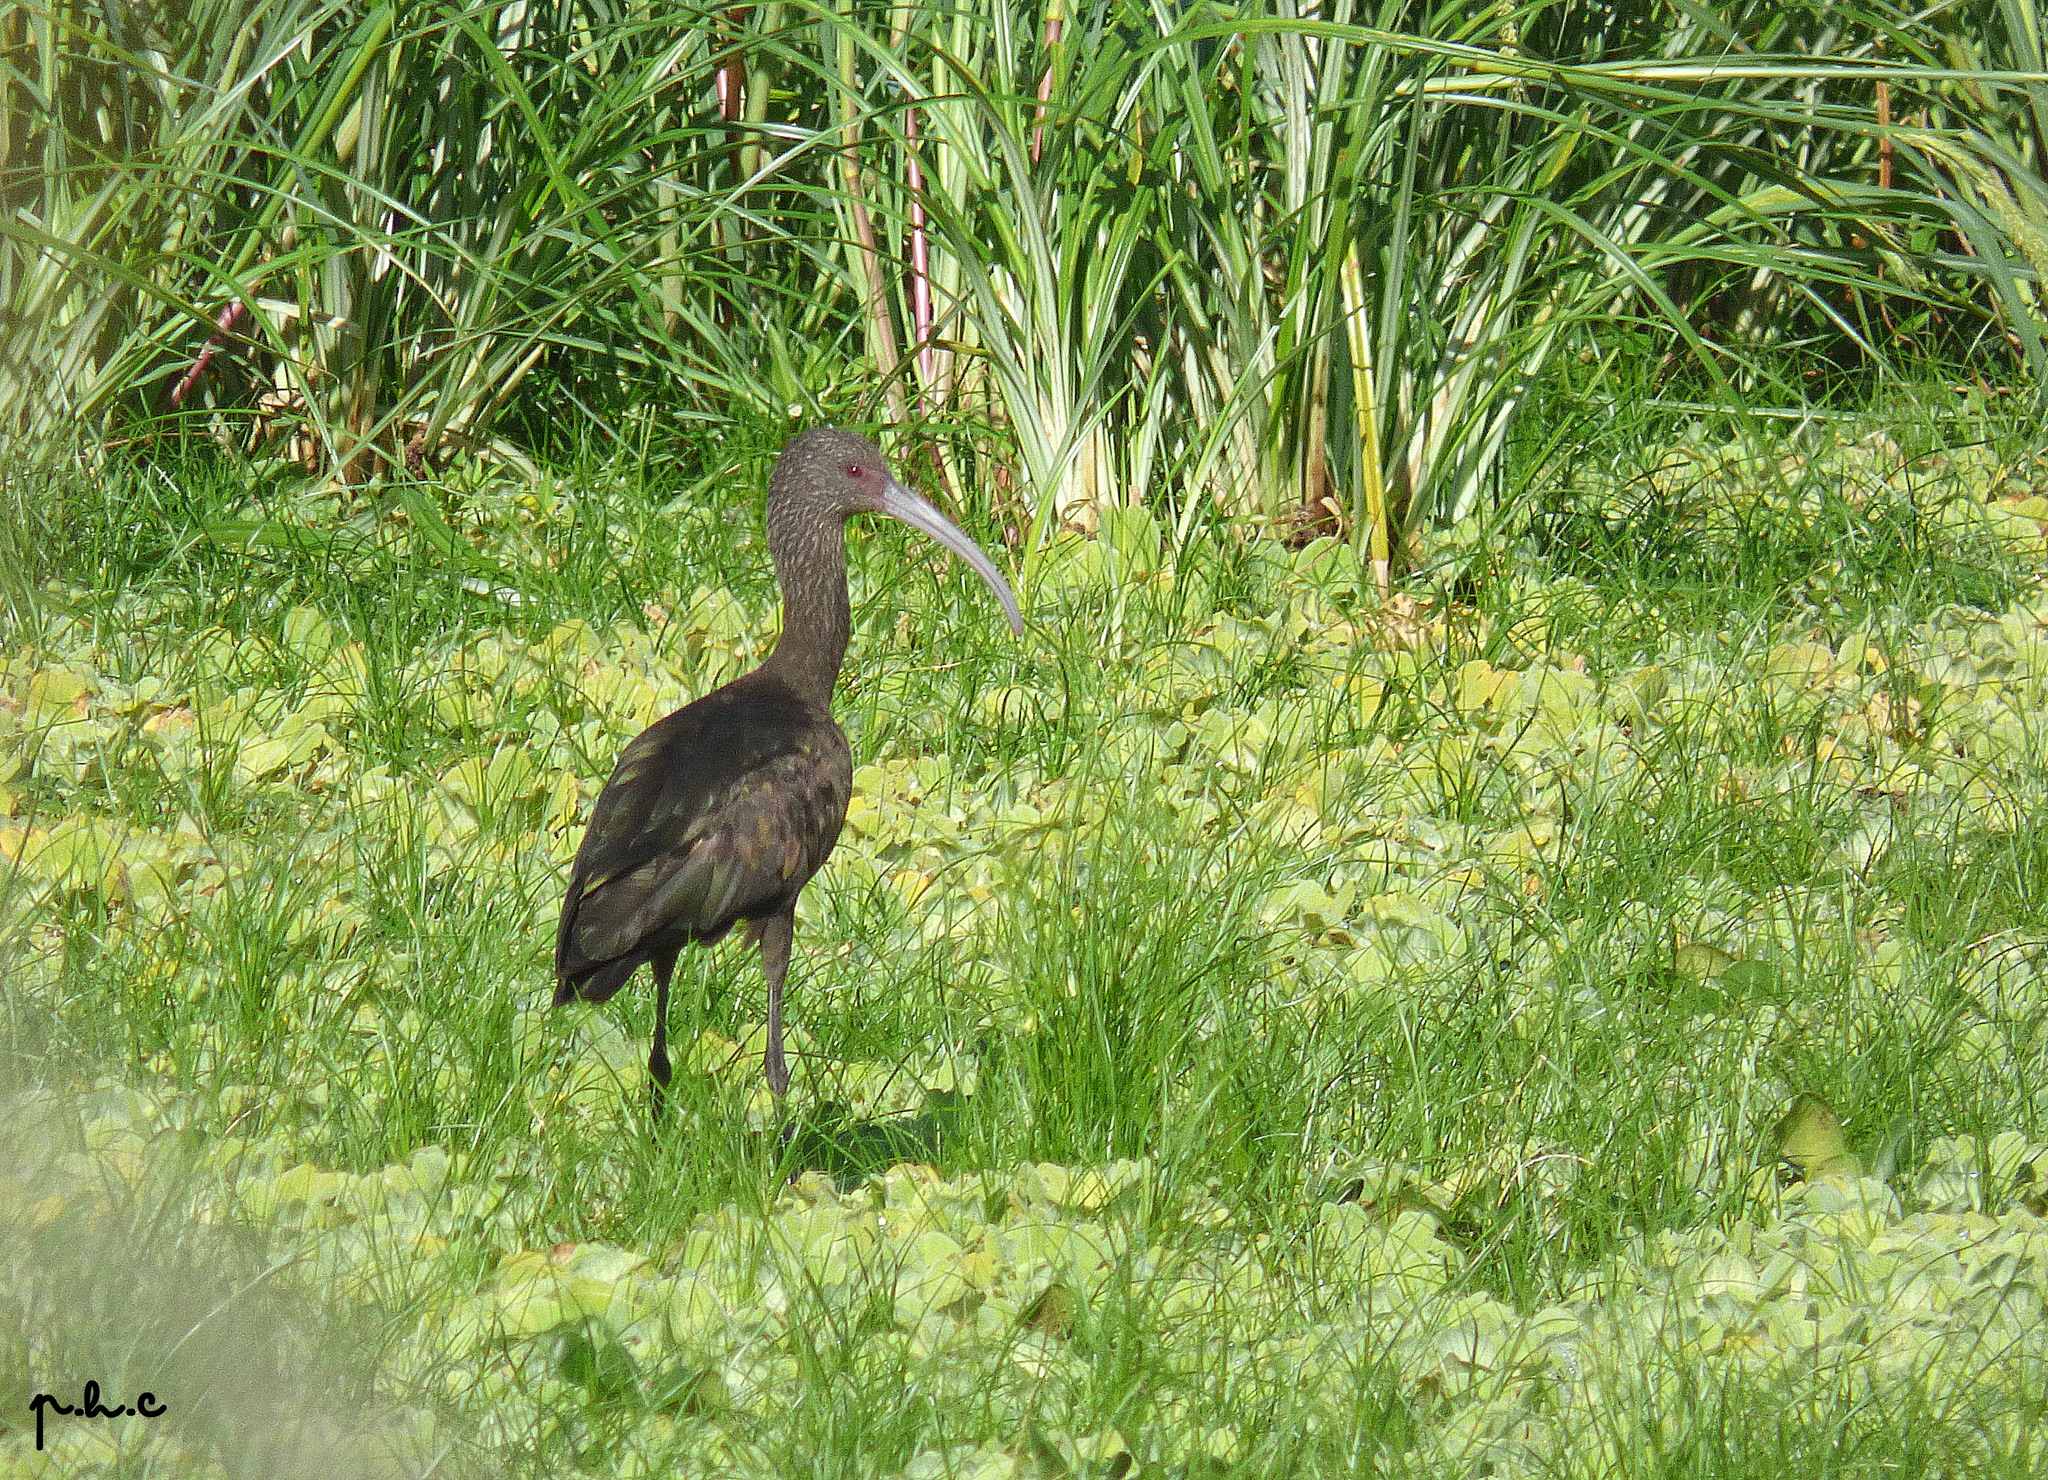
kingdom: Animalia
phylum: Chordata
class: Aves
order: Pelecaniformes
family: Threskiornithidae
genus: Plegadis
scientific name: Plegadis chihi
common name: White-faced ibis
